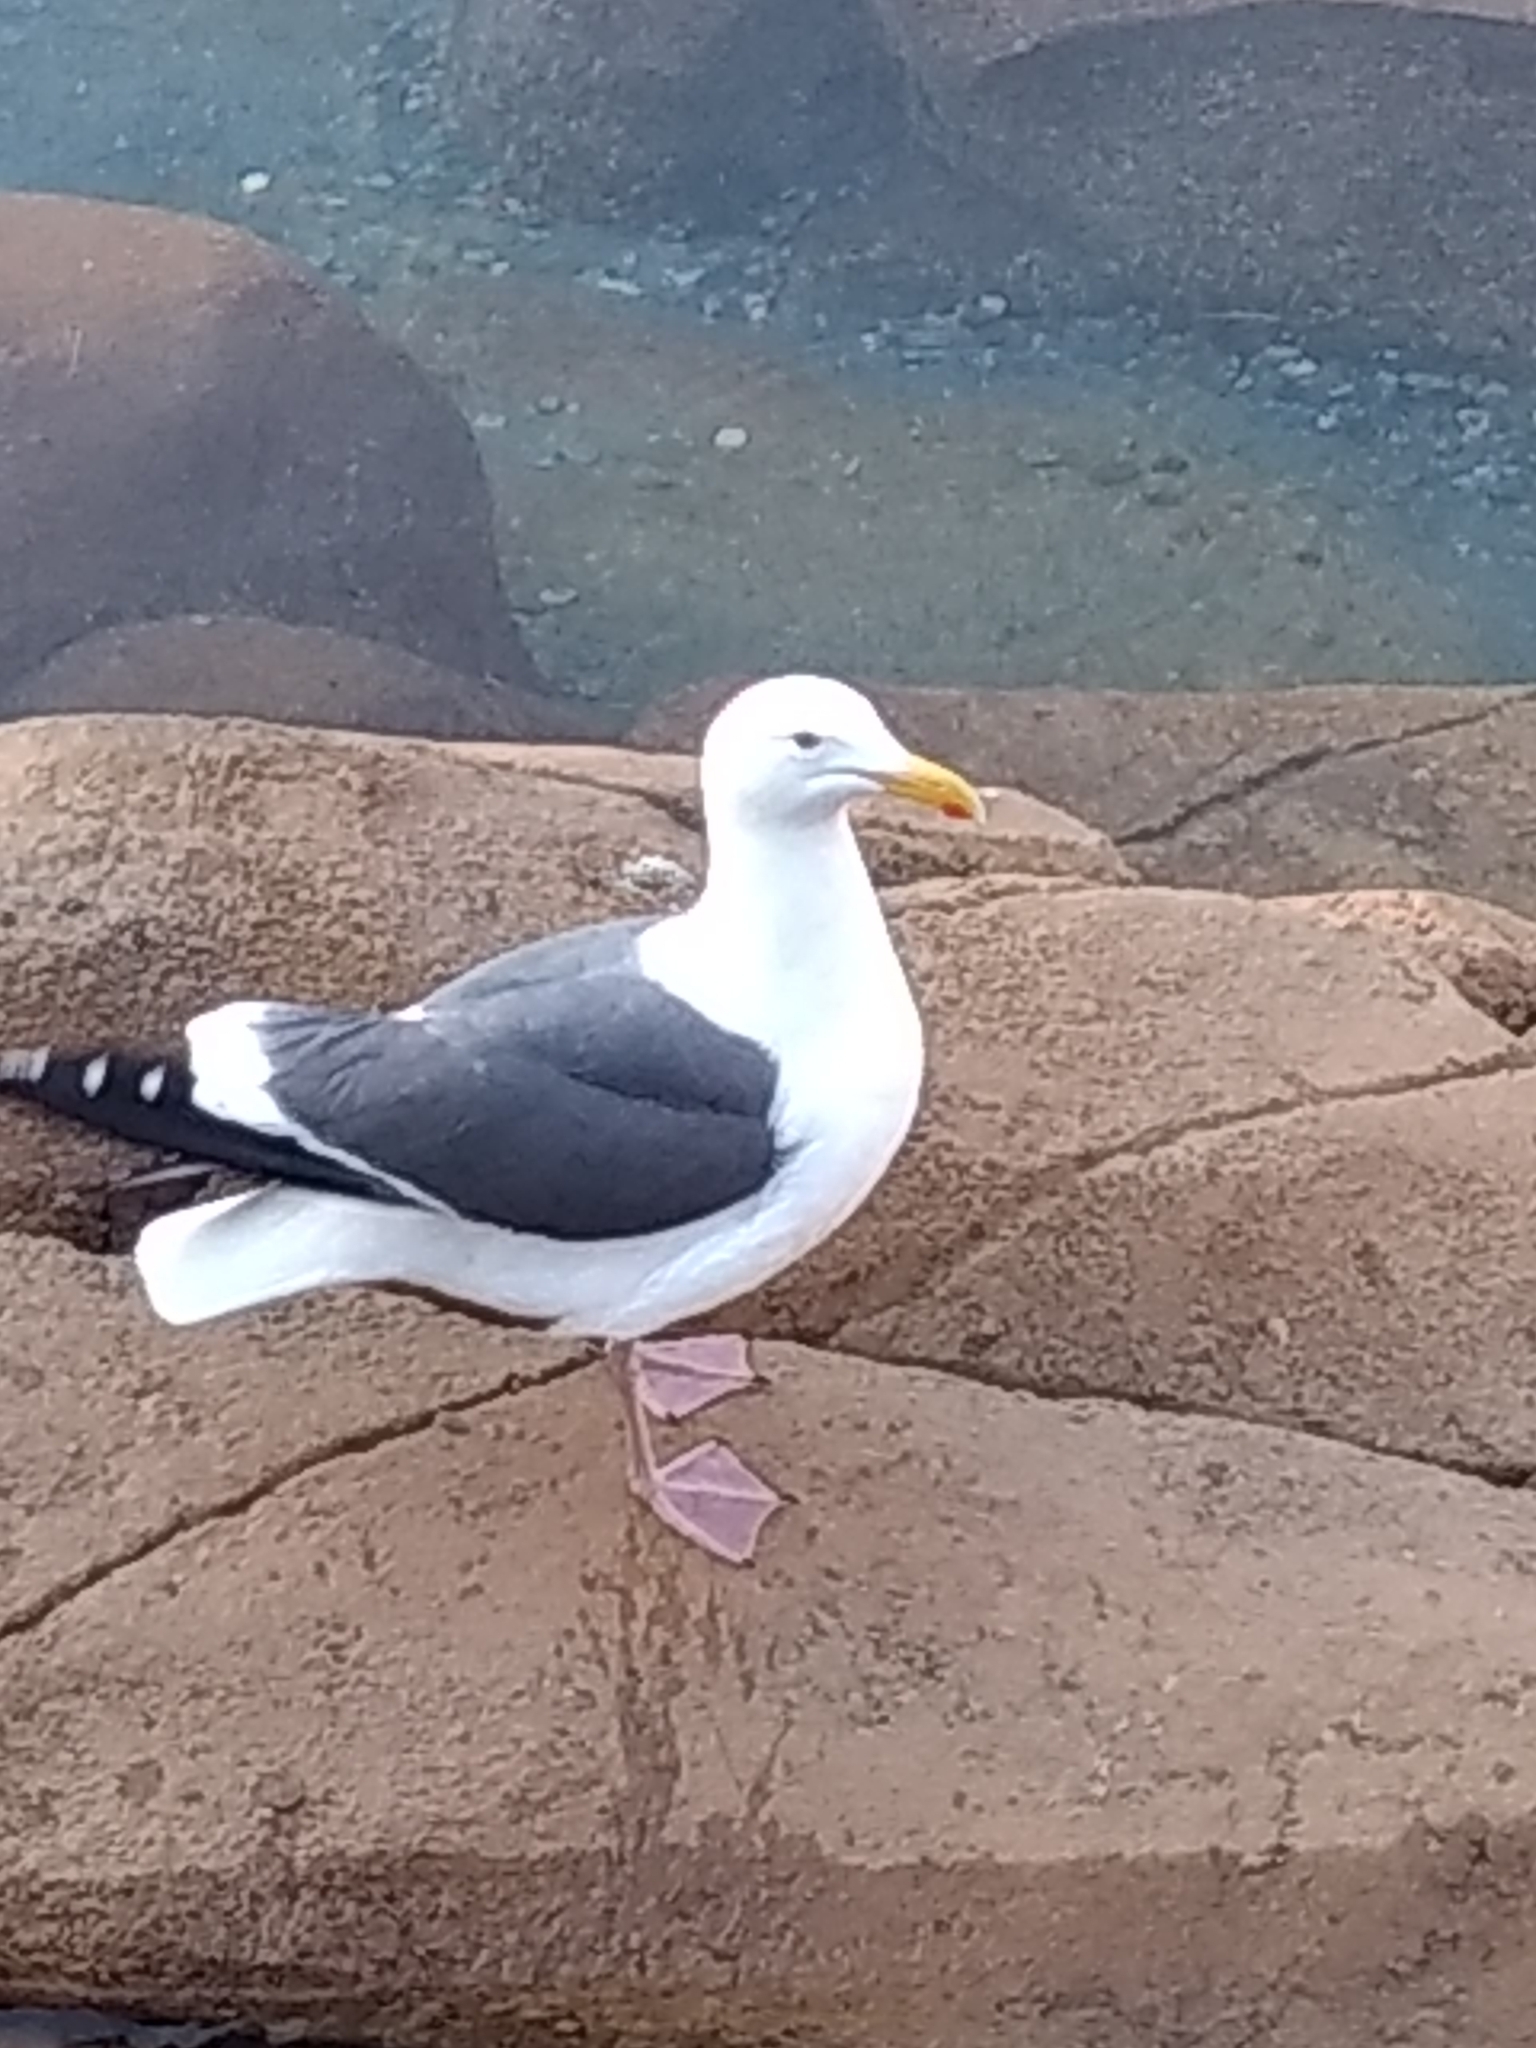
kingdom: Animalia
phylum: Chordata
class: Aves
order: Charadriiformes
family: Laridae
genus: Larus
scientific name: Larus occidentalis
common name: Western gull
